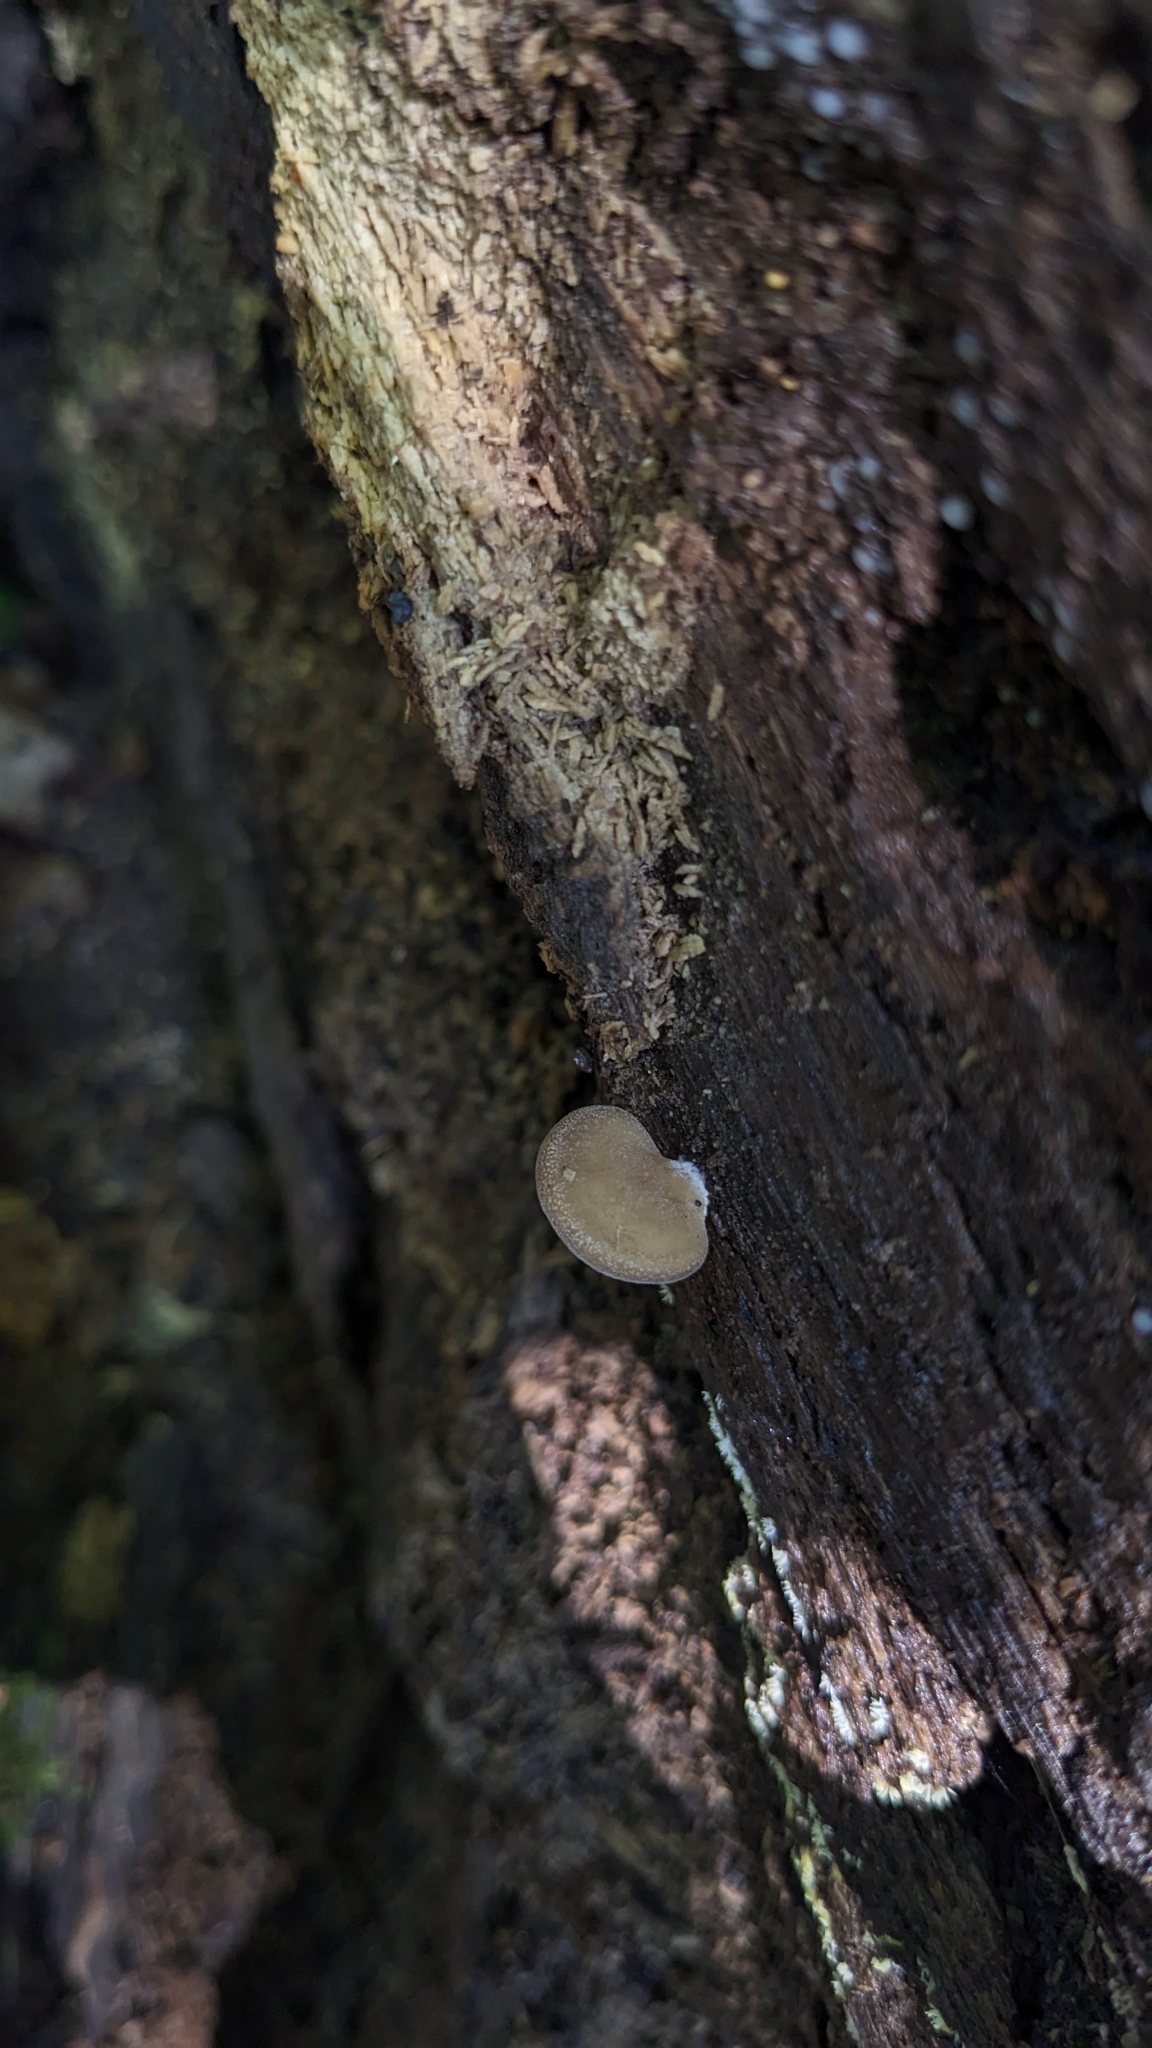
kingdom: Fungi
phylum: Basidiomycota
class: Agaricomycetes
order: Agaricales
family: Pleurotaceae
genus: Hohenbuehelia
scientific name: Hohenbuehelia angustata
